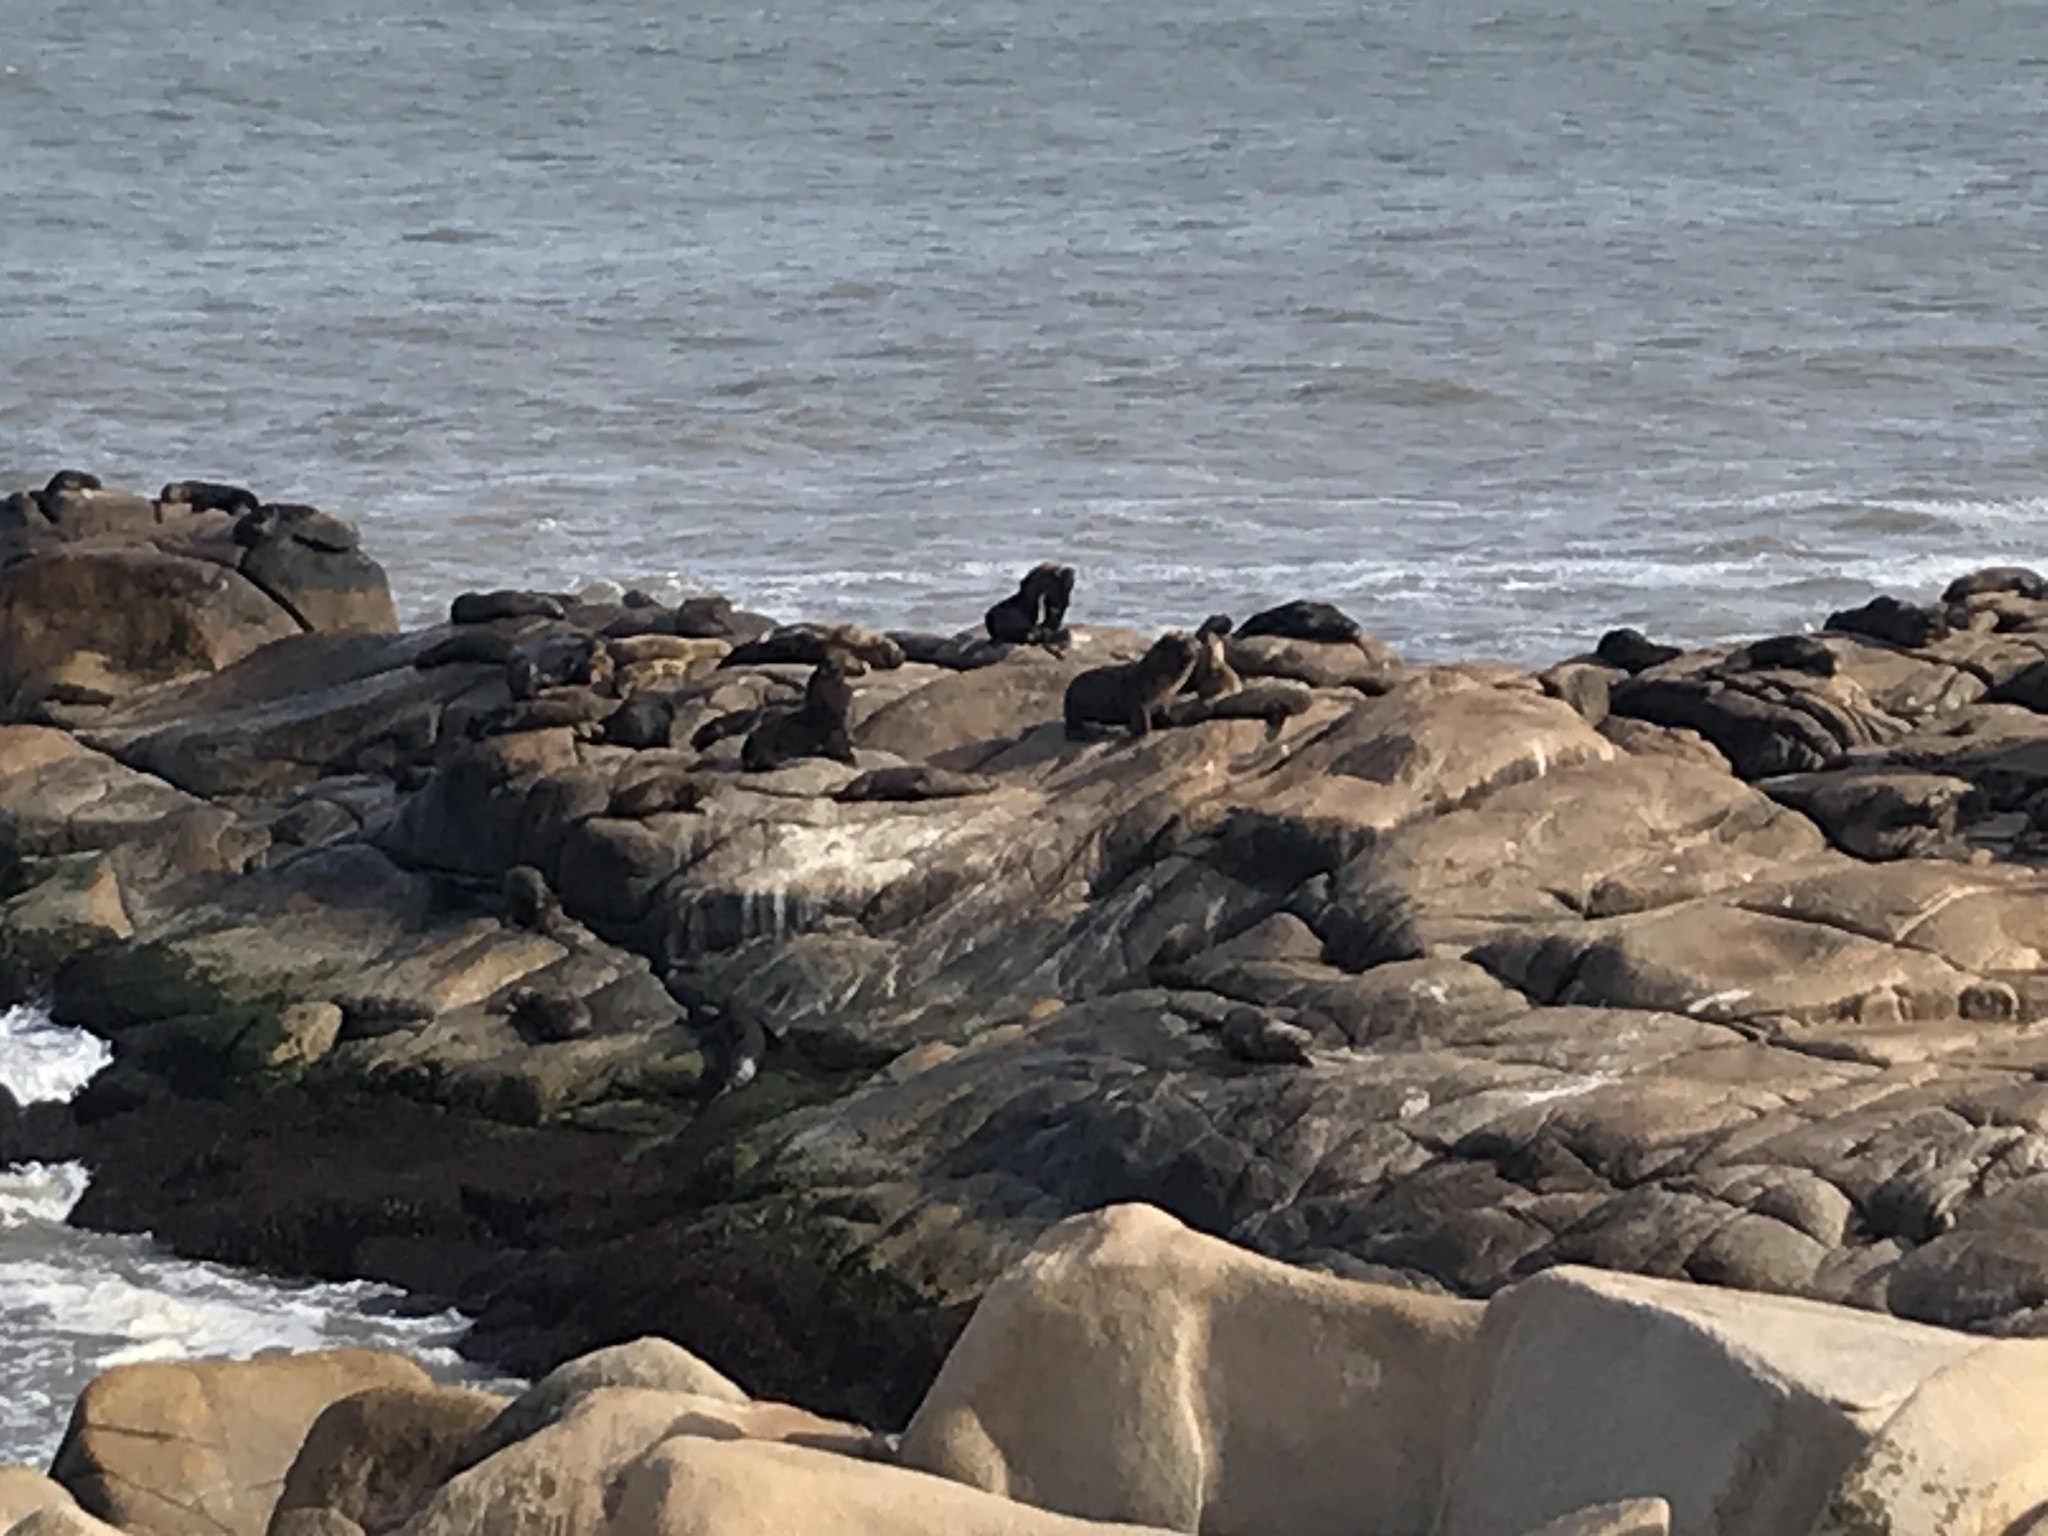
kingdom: Animalia
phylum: Chordata
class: Mammalia
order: Carnivora
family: Otariidae
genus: Otaria
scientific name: Otaria byronia
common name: South american sea lion
